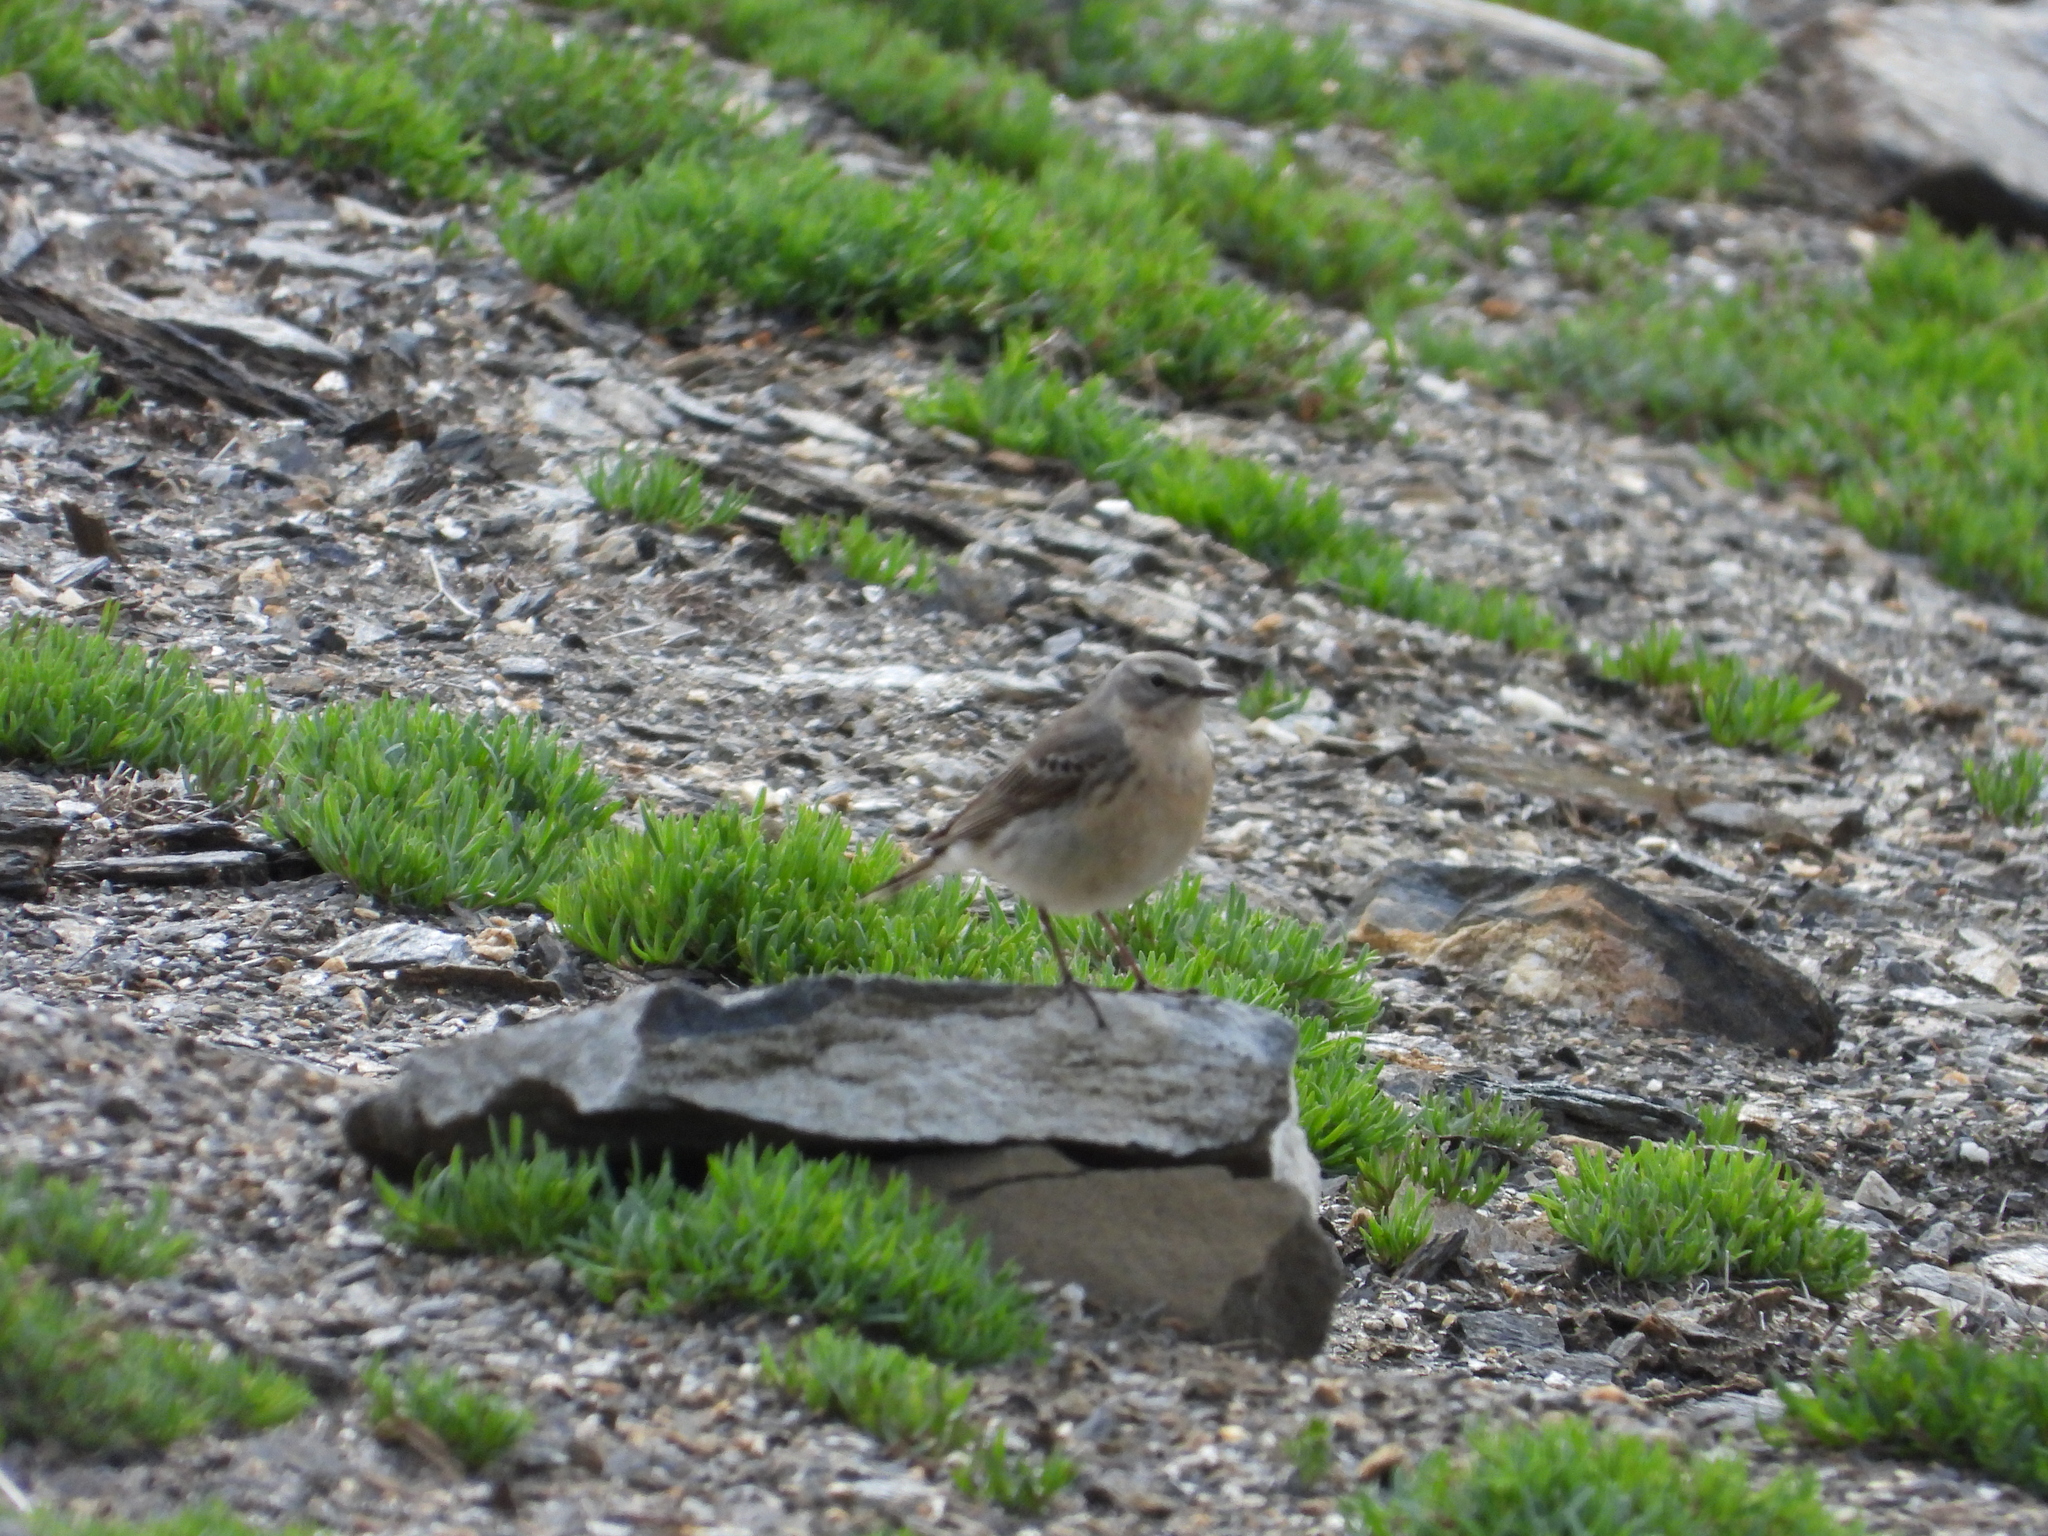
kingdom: Animalia
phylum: Chordata
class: Aves
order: Passeriformes
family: Motacillidae
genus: Anthus
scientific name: Anthus spinoletta
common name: Water pipit
